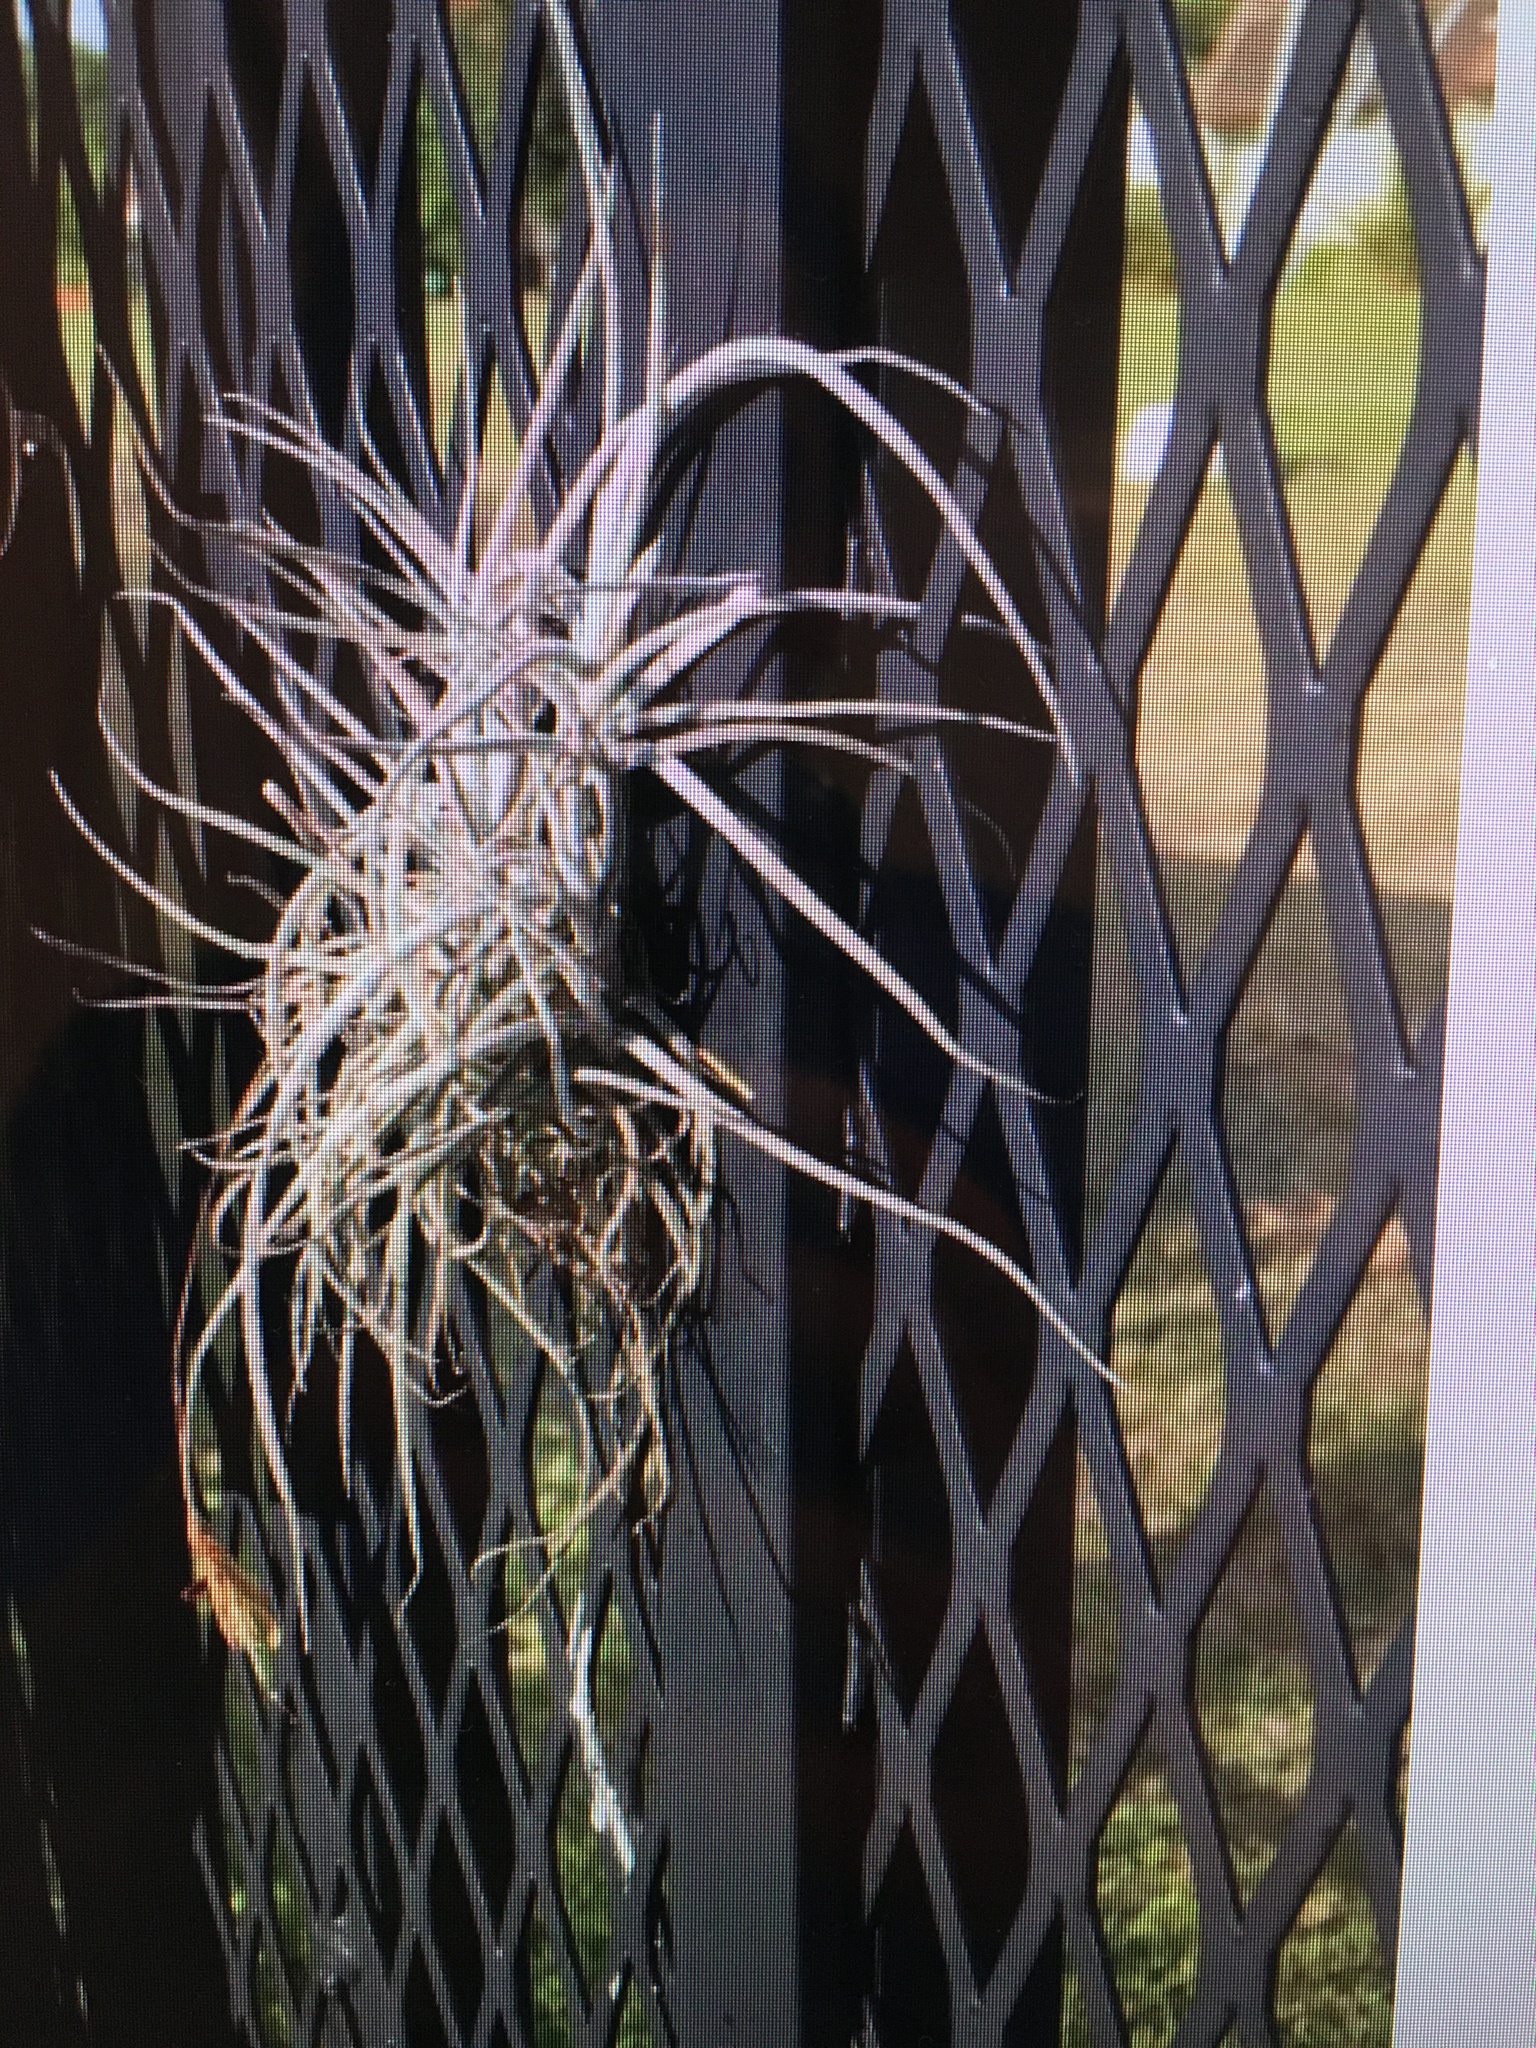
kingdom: Plantae
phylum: Tracheophyta
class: Liliopsida
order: Poales
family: Bromeliaceae
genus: Tillandsia
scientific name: Tillandsia recurvata
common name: Small ballmoss
